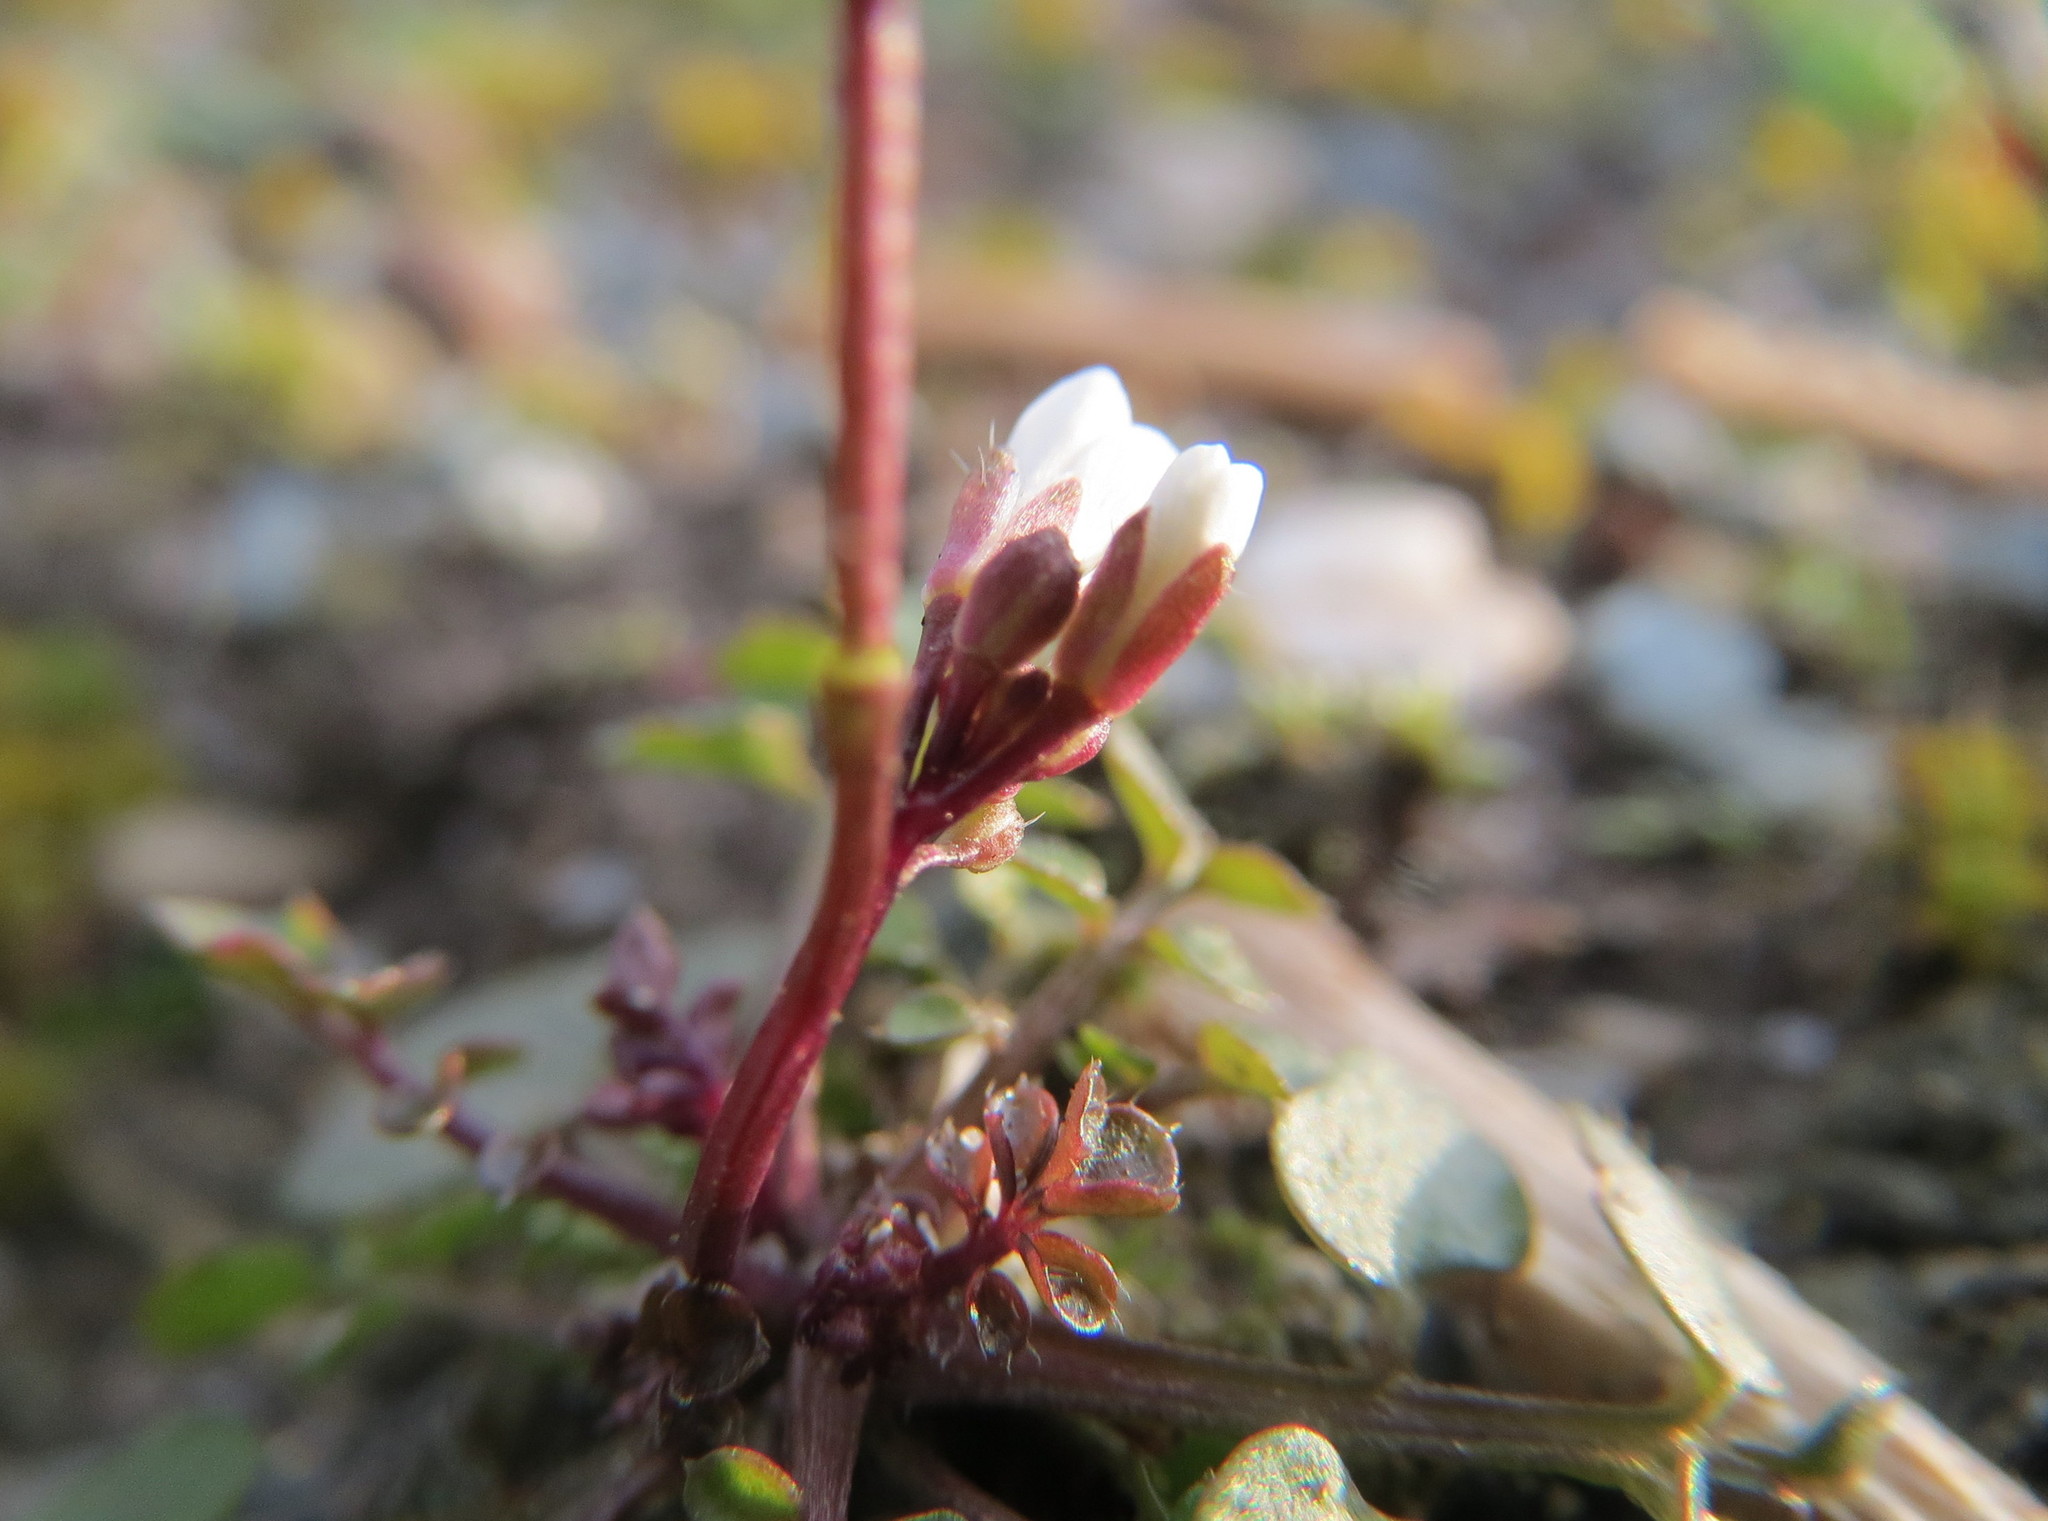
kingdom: Plantae
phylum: Tracheophyta
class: Magnoliopsida
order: Brassicales
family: Brassicaceae
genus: Cardamine
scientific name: Cardamine hirsuta
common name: Hairy bittercress
